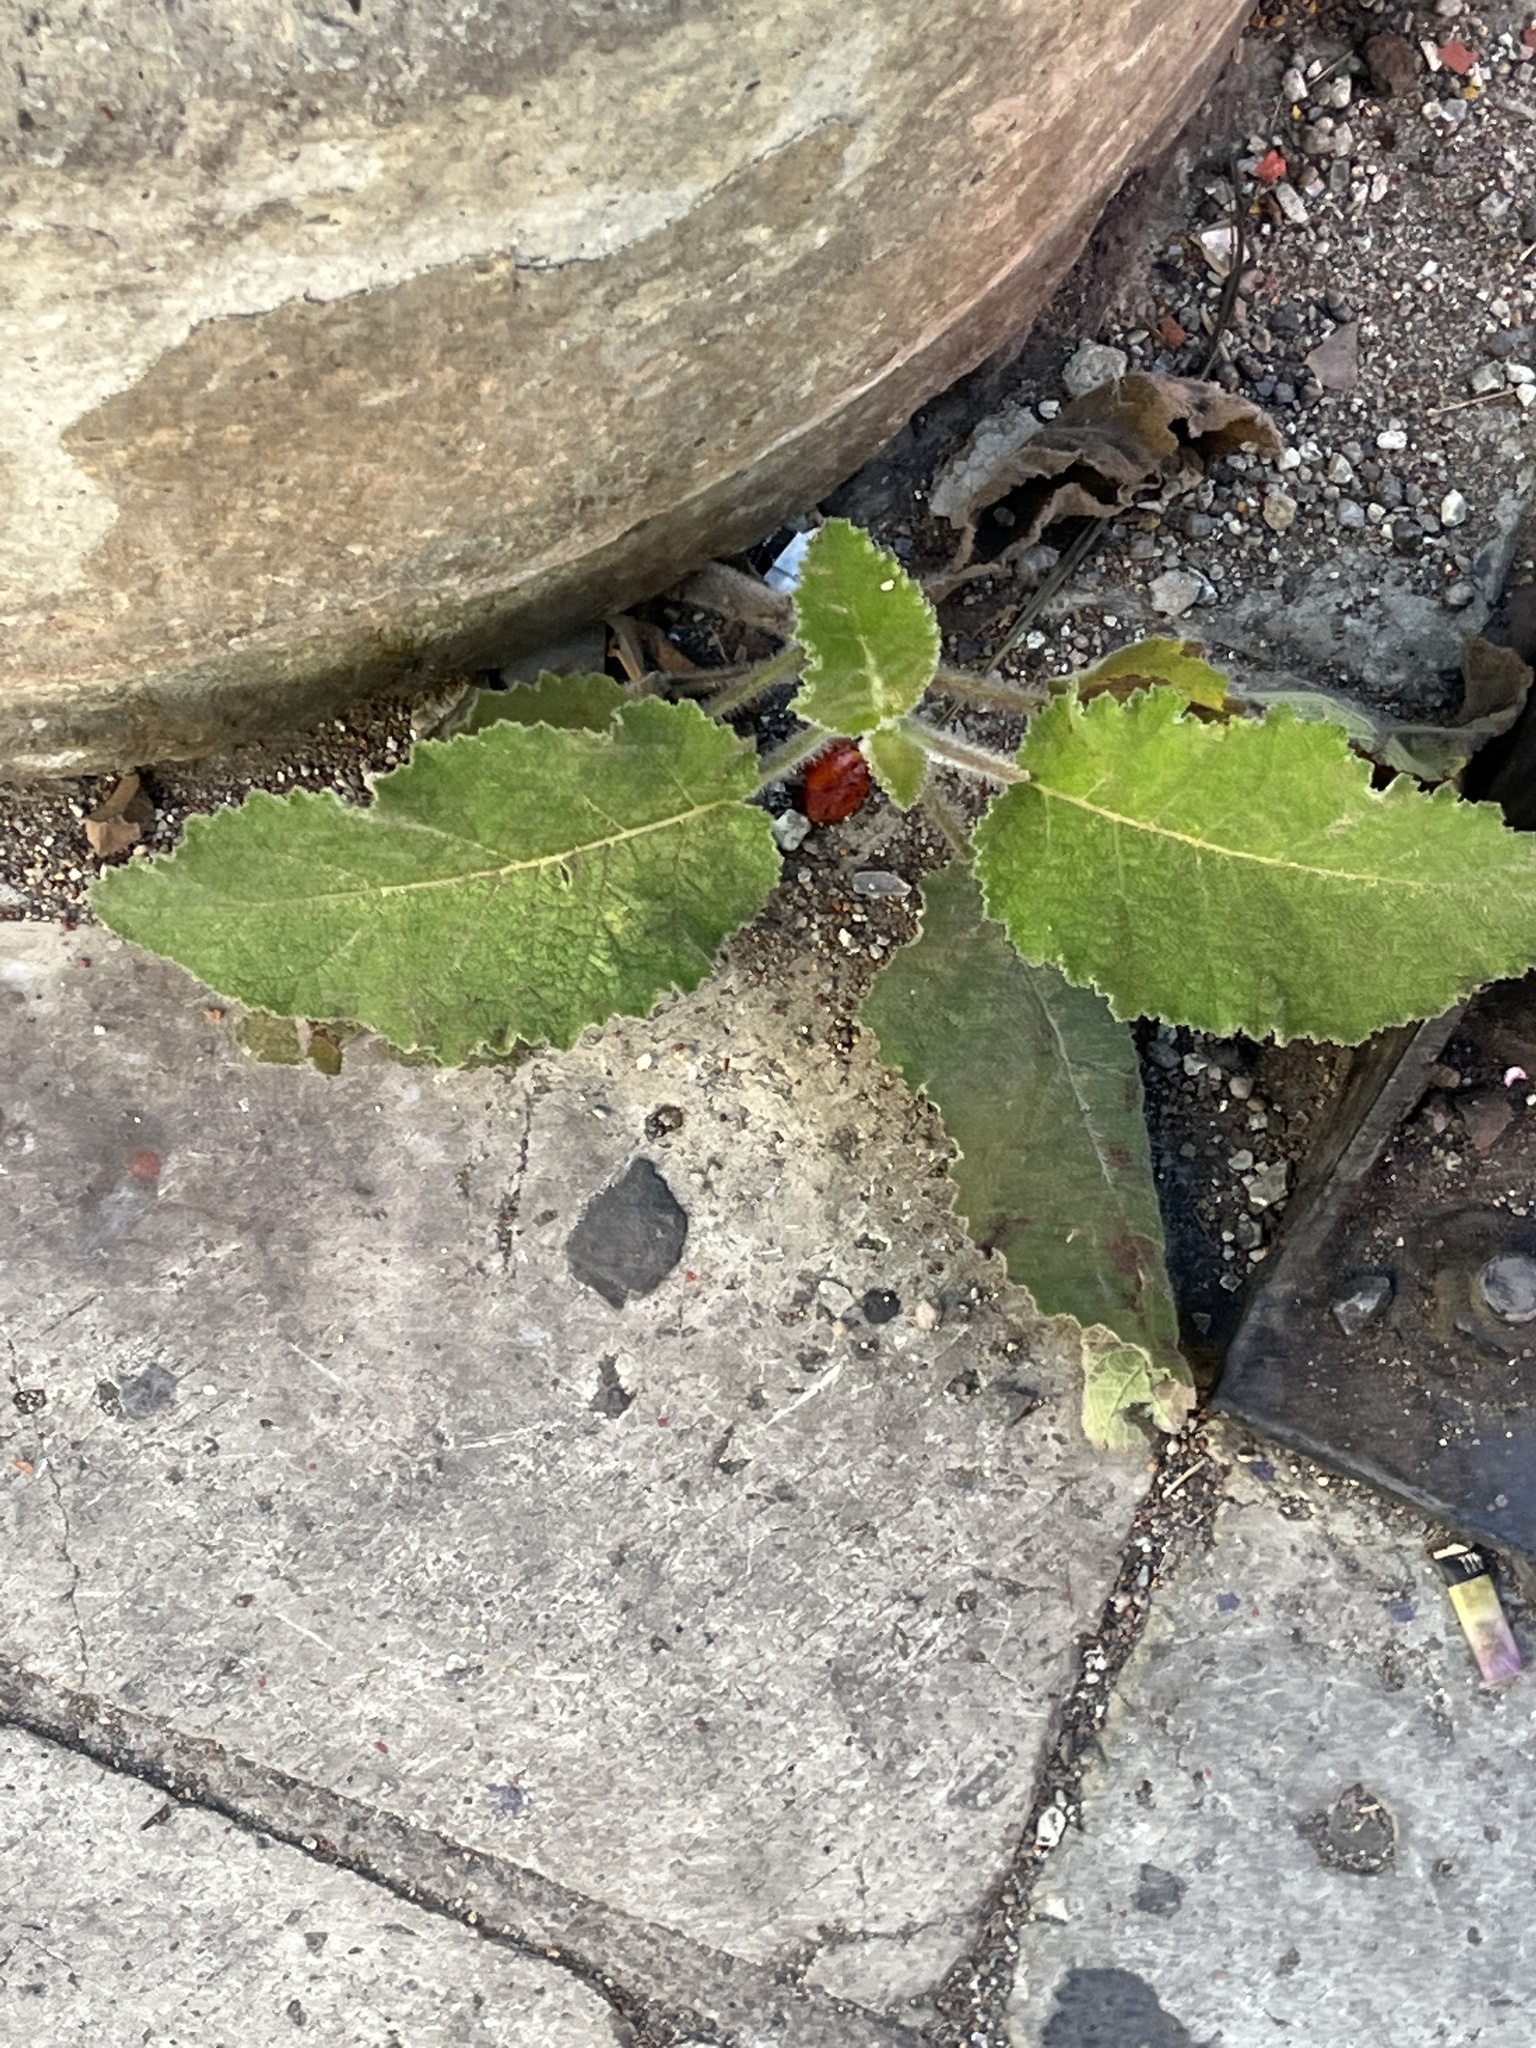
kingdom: Plantae
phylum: Tracheophyta
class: Magnoliopsida
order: Boraginales
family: Namaceae
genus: Wigandia
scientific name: Wigandia urens
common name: Caracus wigandia
